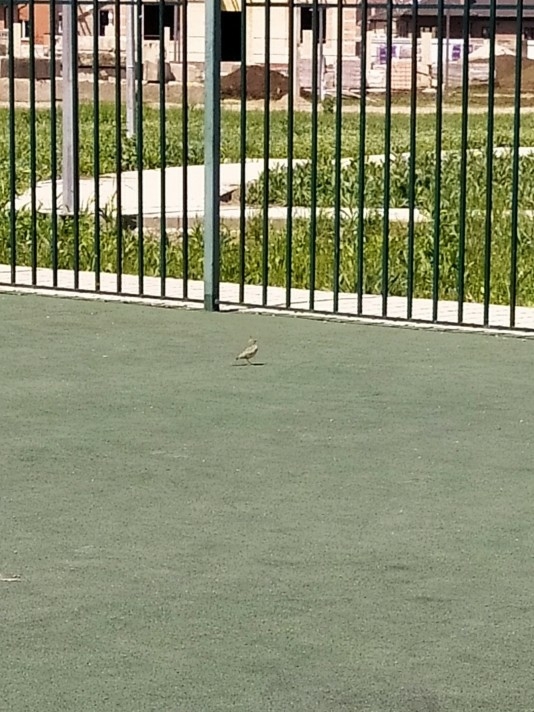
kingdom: Animalia
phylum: Chordata
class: Aves
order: Passeriformes
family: Alaudidae
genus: Galerida
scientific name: Galerida cristata
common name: Crested lark
